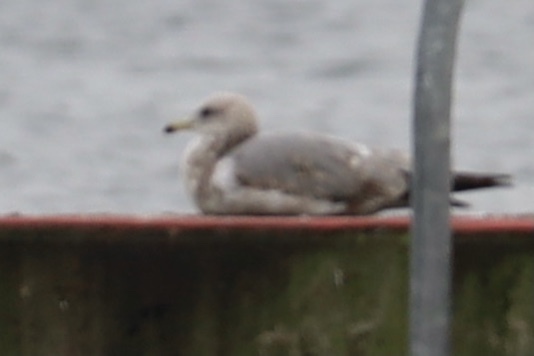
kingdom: Animalia
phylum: Chordata
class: Aves
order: Charadriiformes
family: Laridae
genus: Larus
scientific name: Larus californicus
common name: California gull
